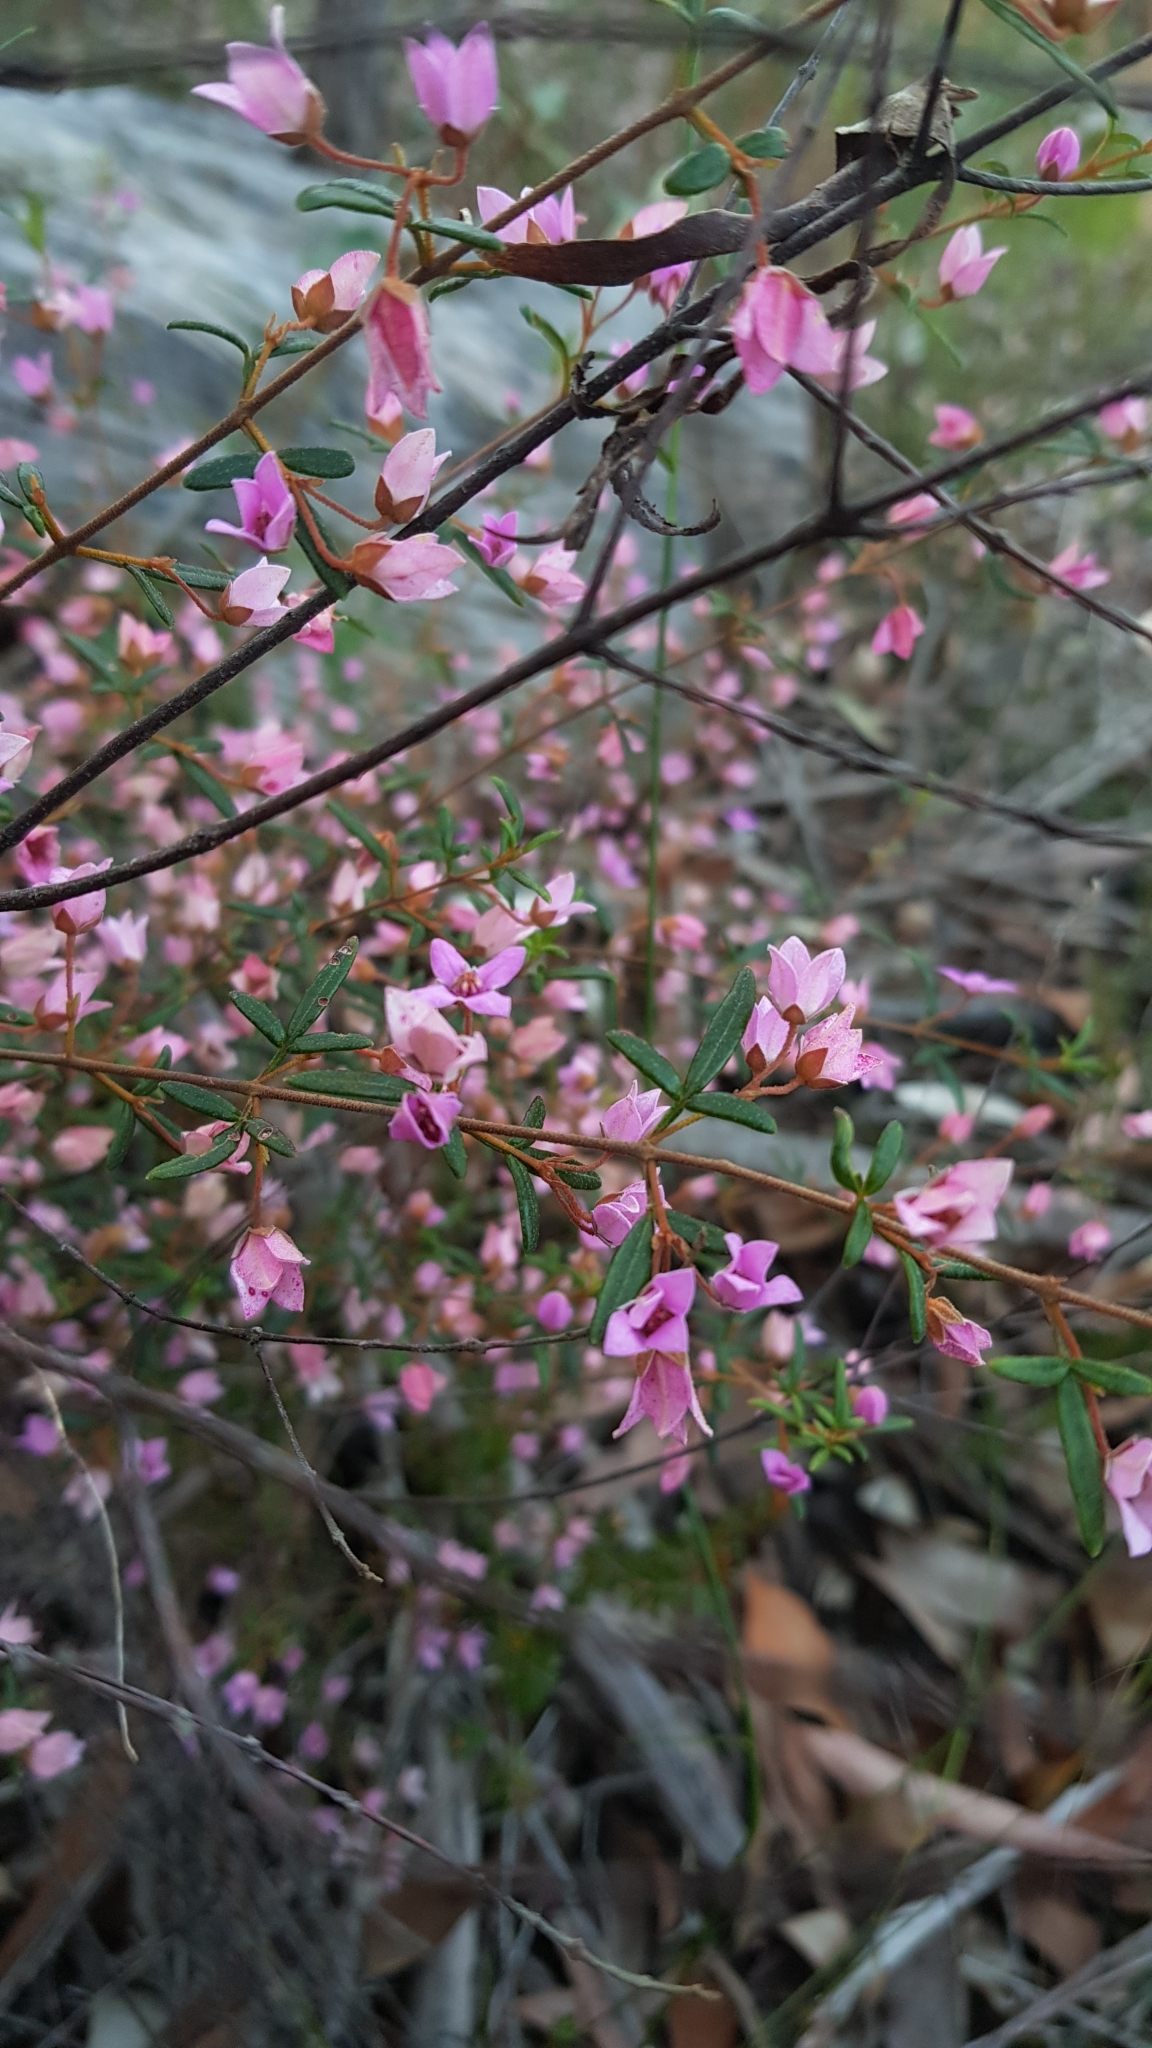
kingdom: Plantae
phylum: Tracheophyta
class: Magnoliopsida
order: Sapindales
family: Rutaceae
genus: Boronia
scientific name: Boronia ledifolia
